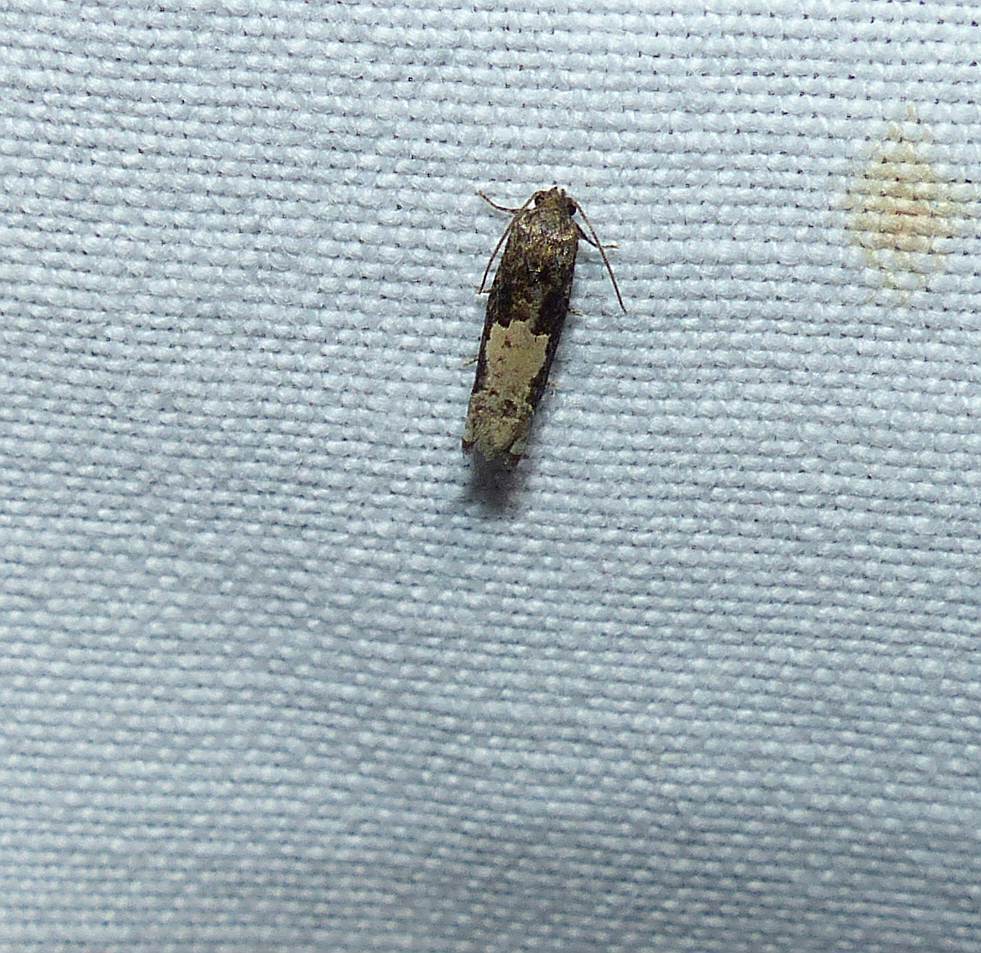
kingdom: Animalia
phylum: Arthropoda
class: Insecta
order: Lepidoptera
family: Tortricidae
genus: Epiblema
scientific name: Epiblema dorsisuffusana
